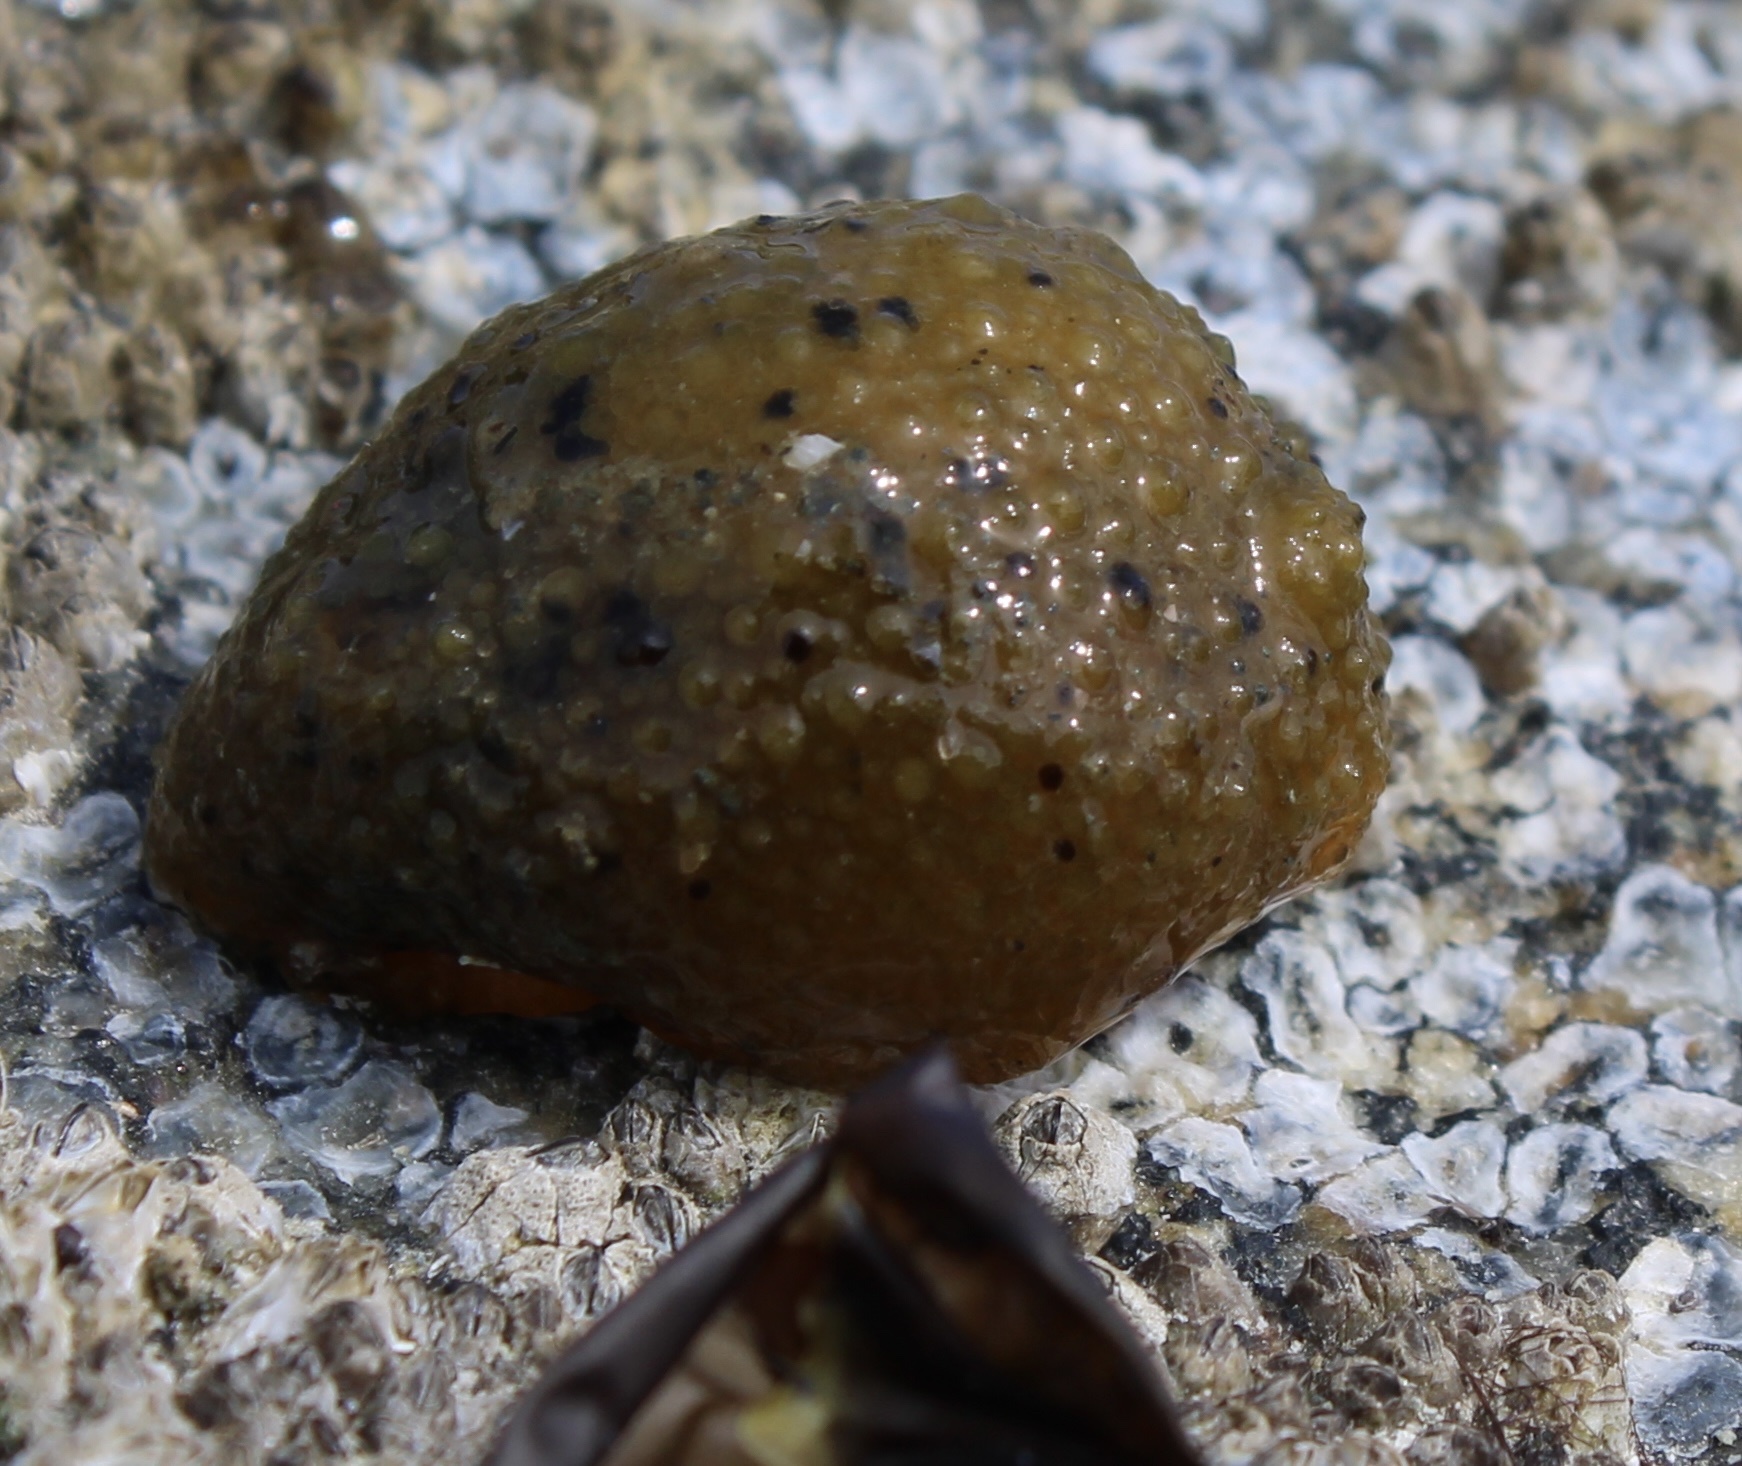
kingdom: Animalia
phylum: Mollusca
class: Gastropoda
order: Nudibranchia
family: Dorididae
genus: Doris
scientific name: Doris montereyensis
